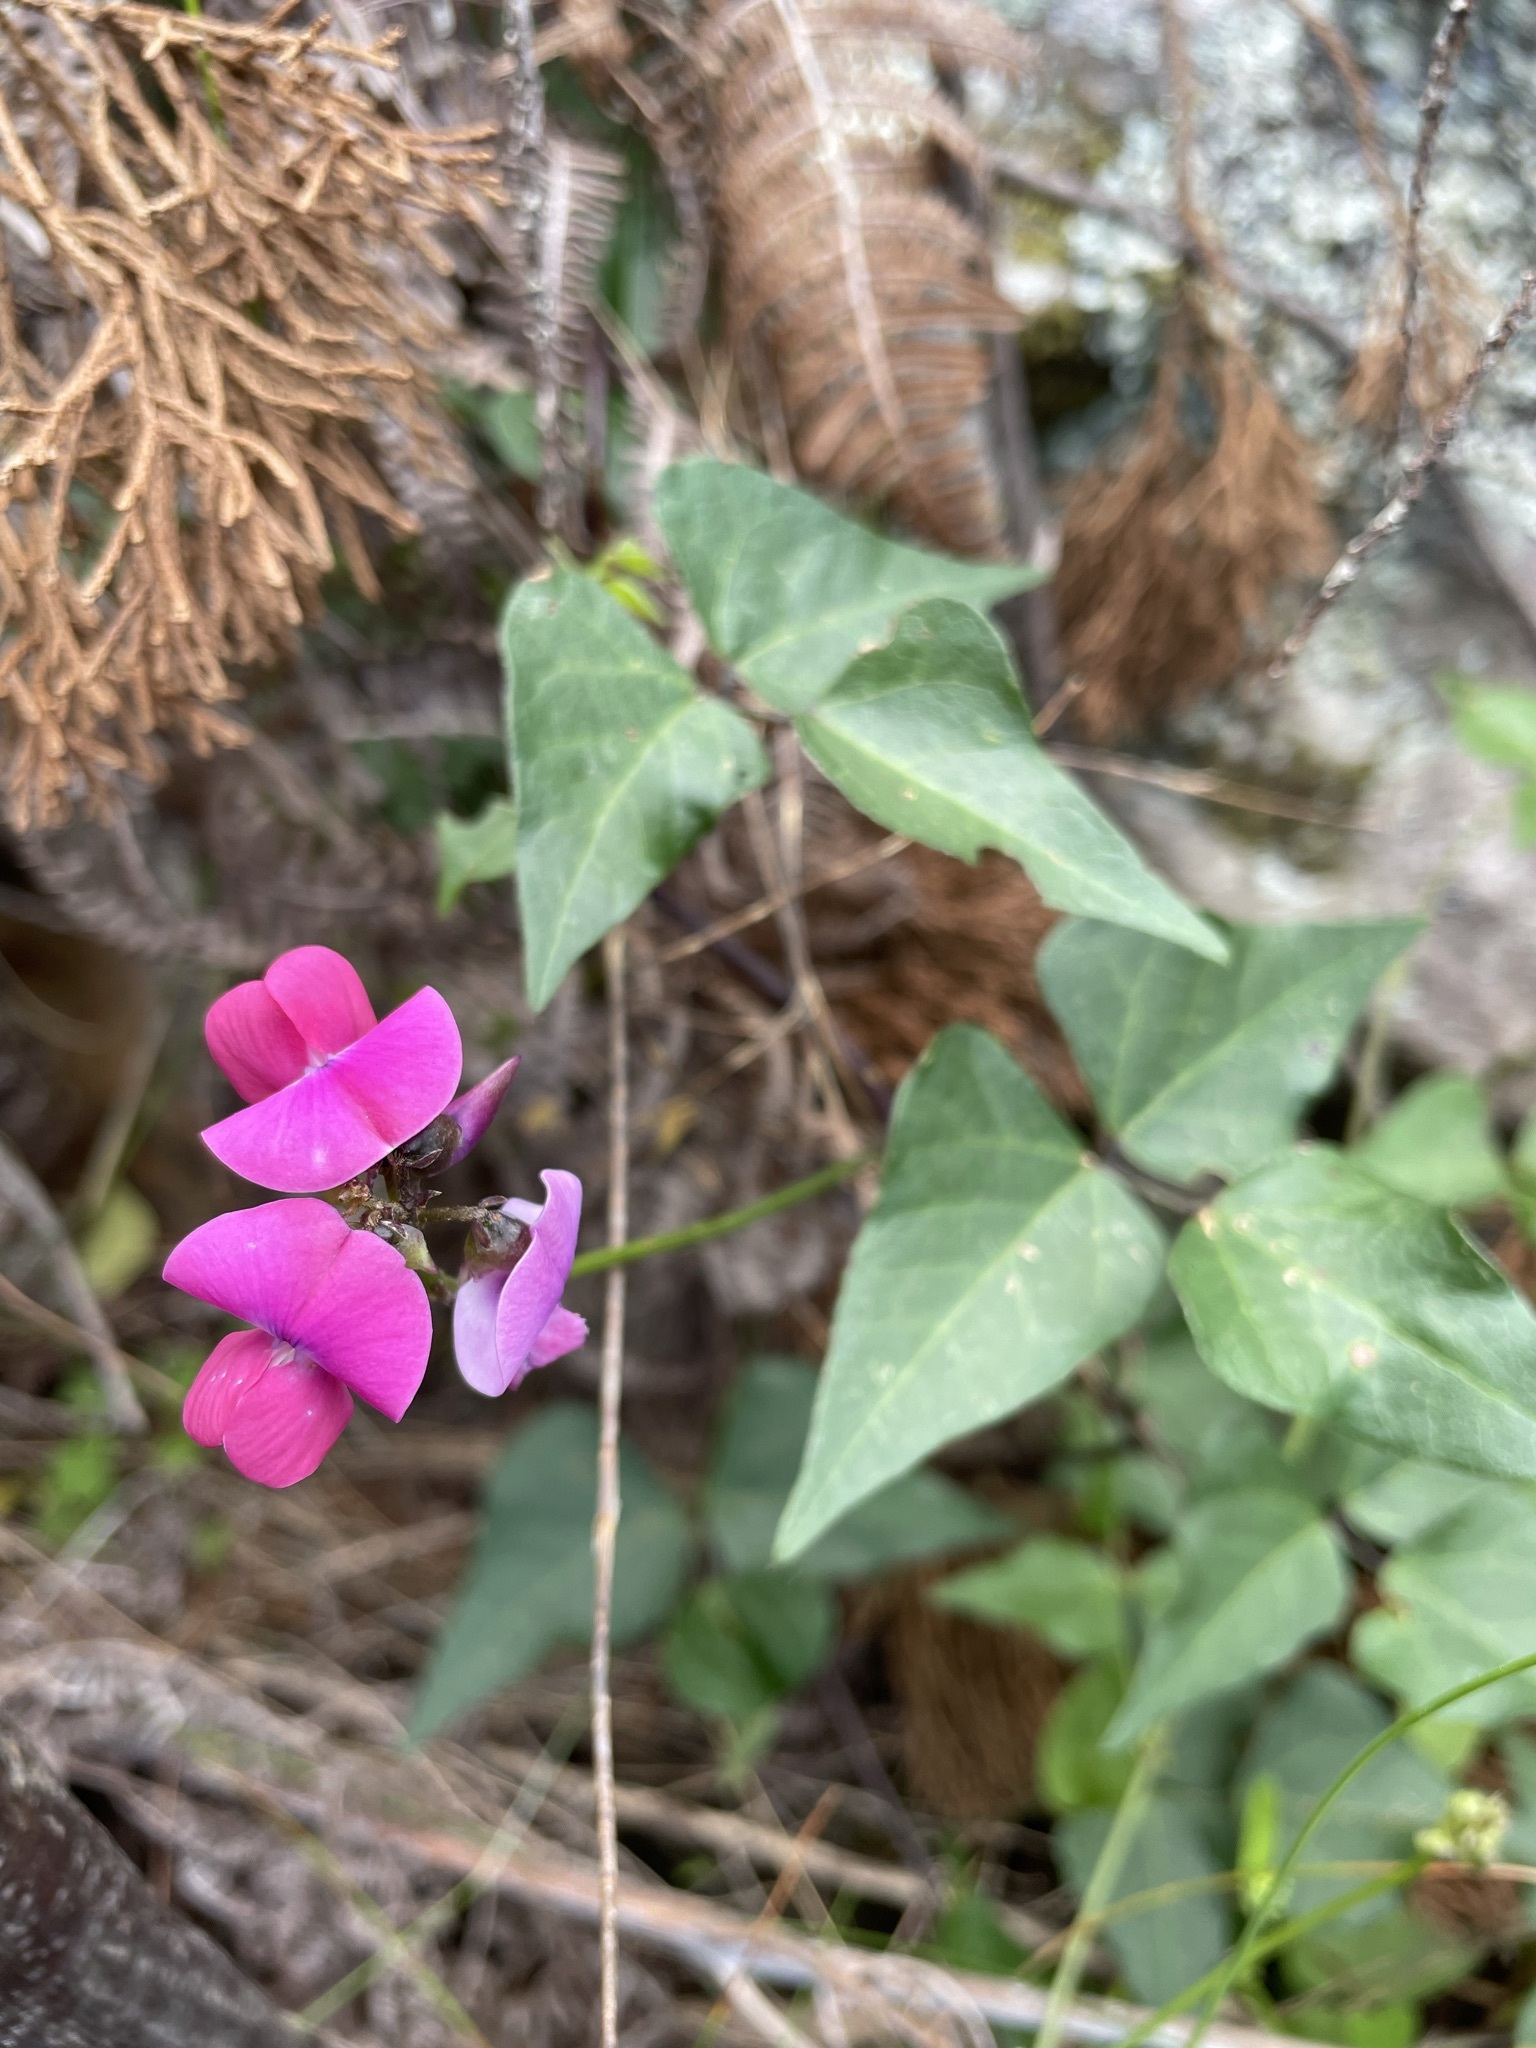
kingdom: Plantae
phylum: Tracheophyta
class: Magnoliopsida
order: Fabales
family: Fabaceae
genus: Dipogon
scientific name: Dipogon lignosus
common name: Okie bean
